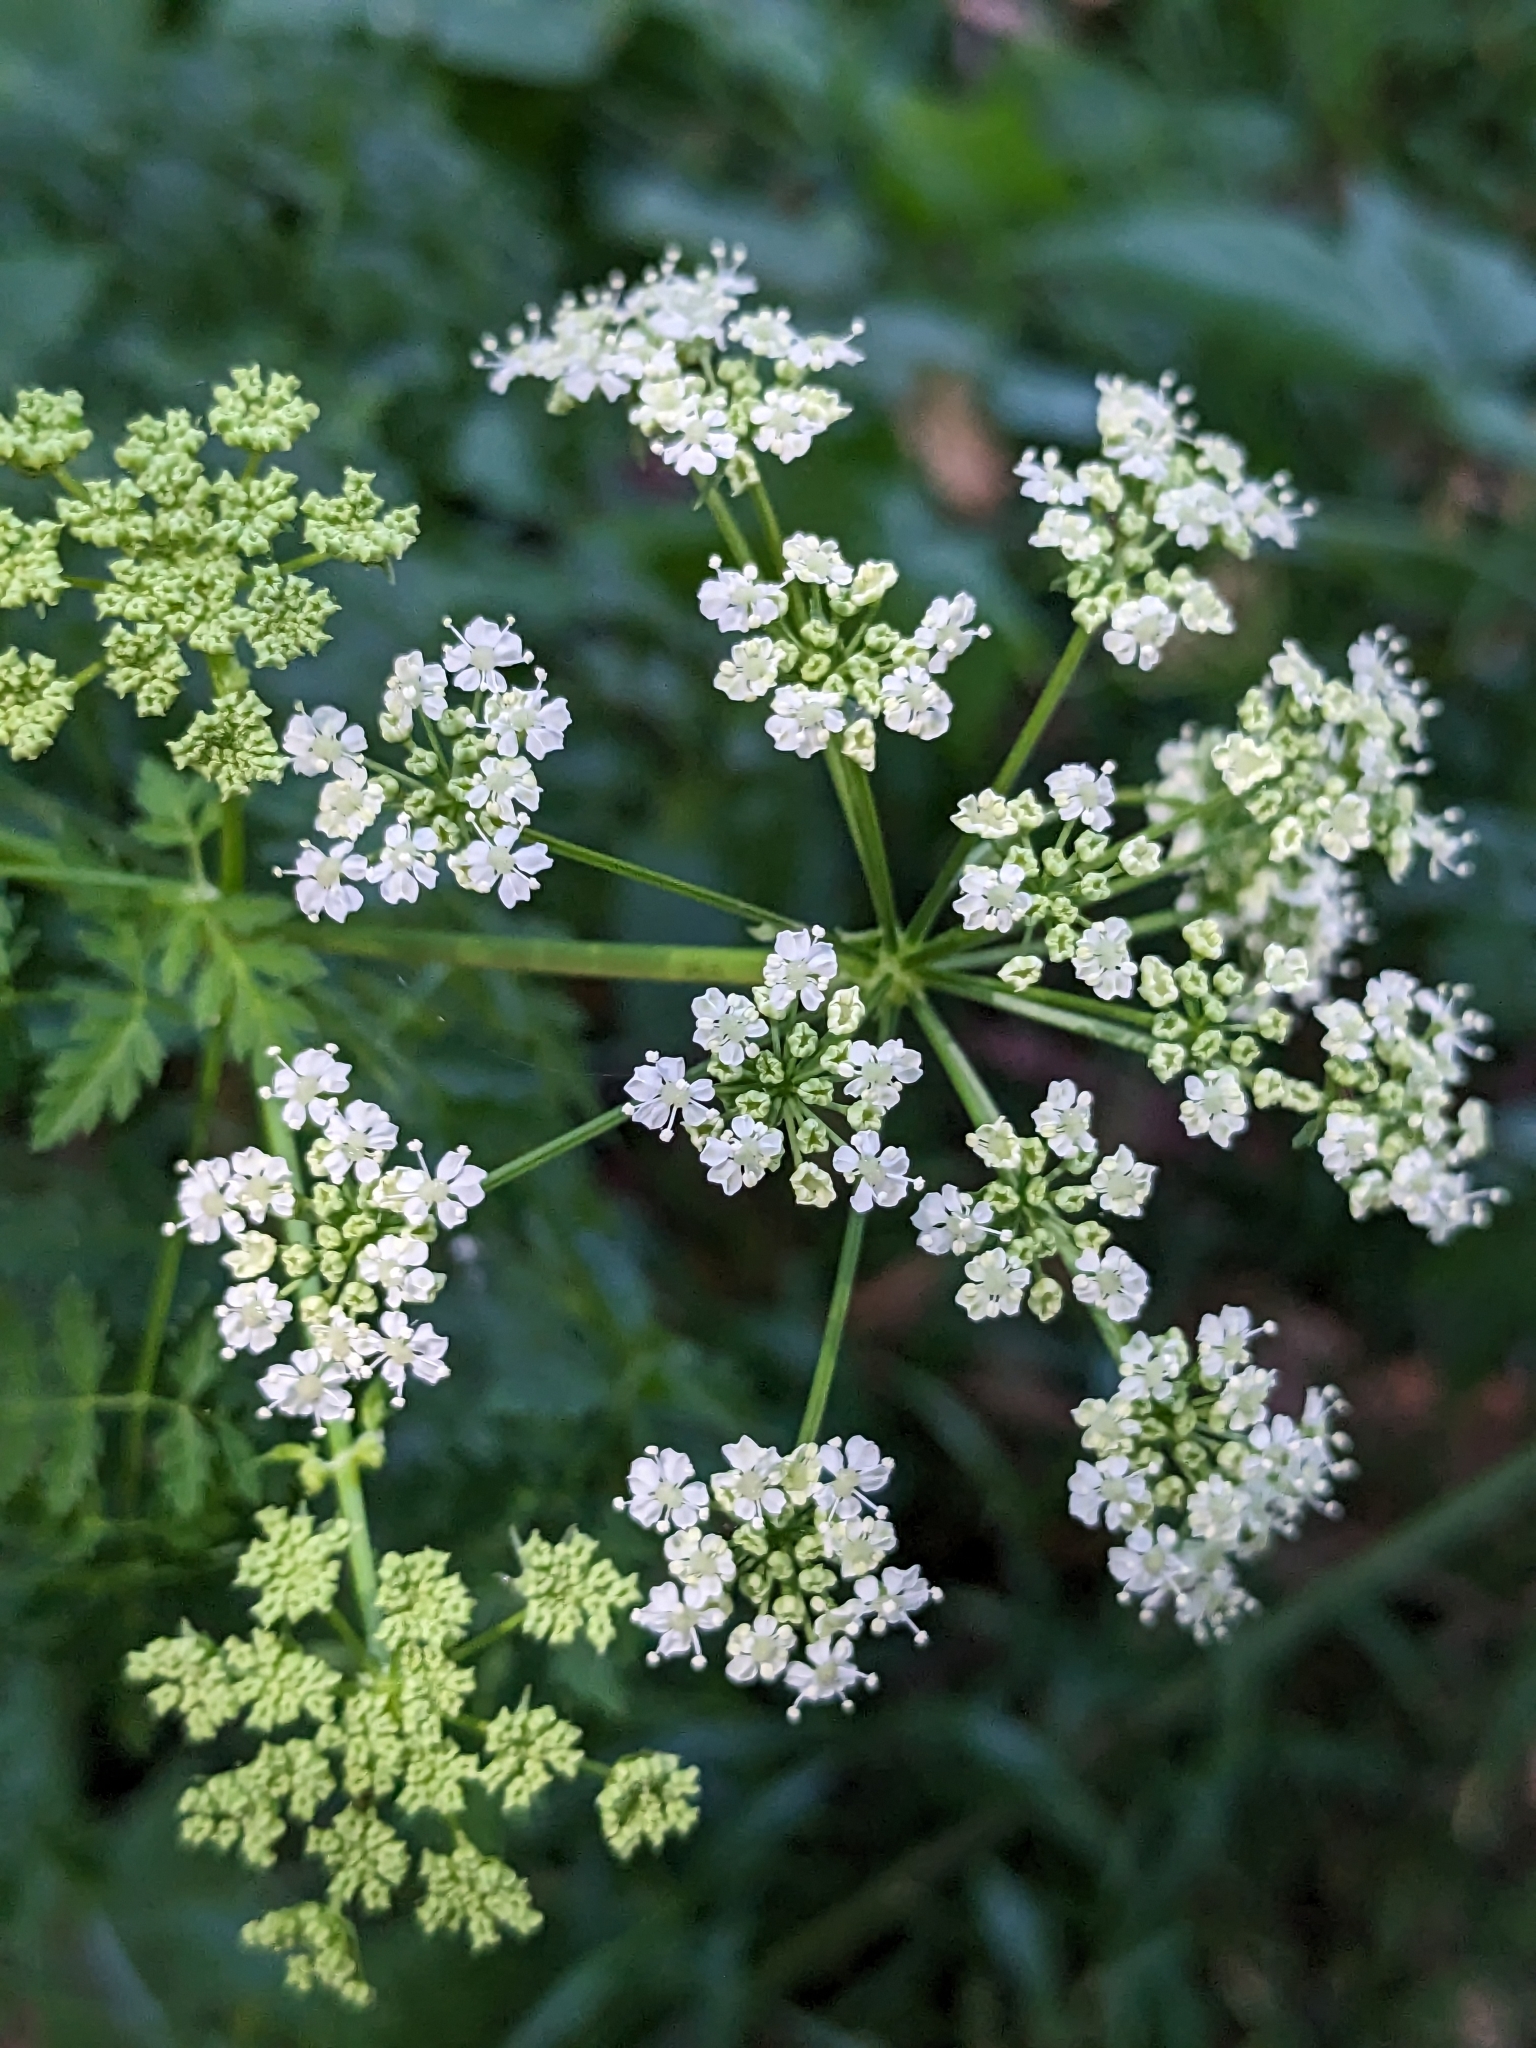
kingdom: Plantae
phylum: Tracheophyta
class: Magnoliopsida
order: Apiales
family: Apiaceae
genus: Conium
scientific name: Conium maculatum
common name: Hemlock
